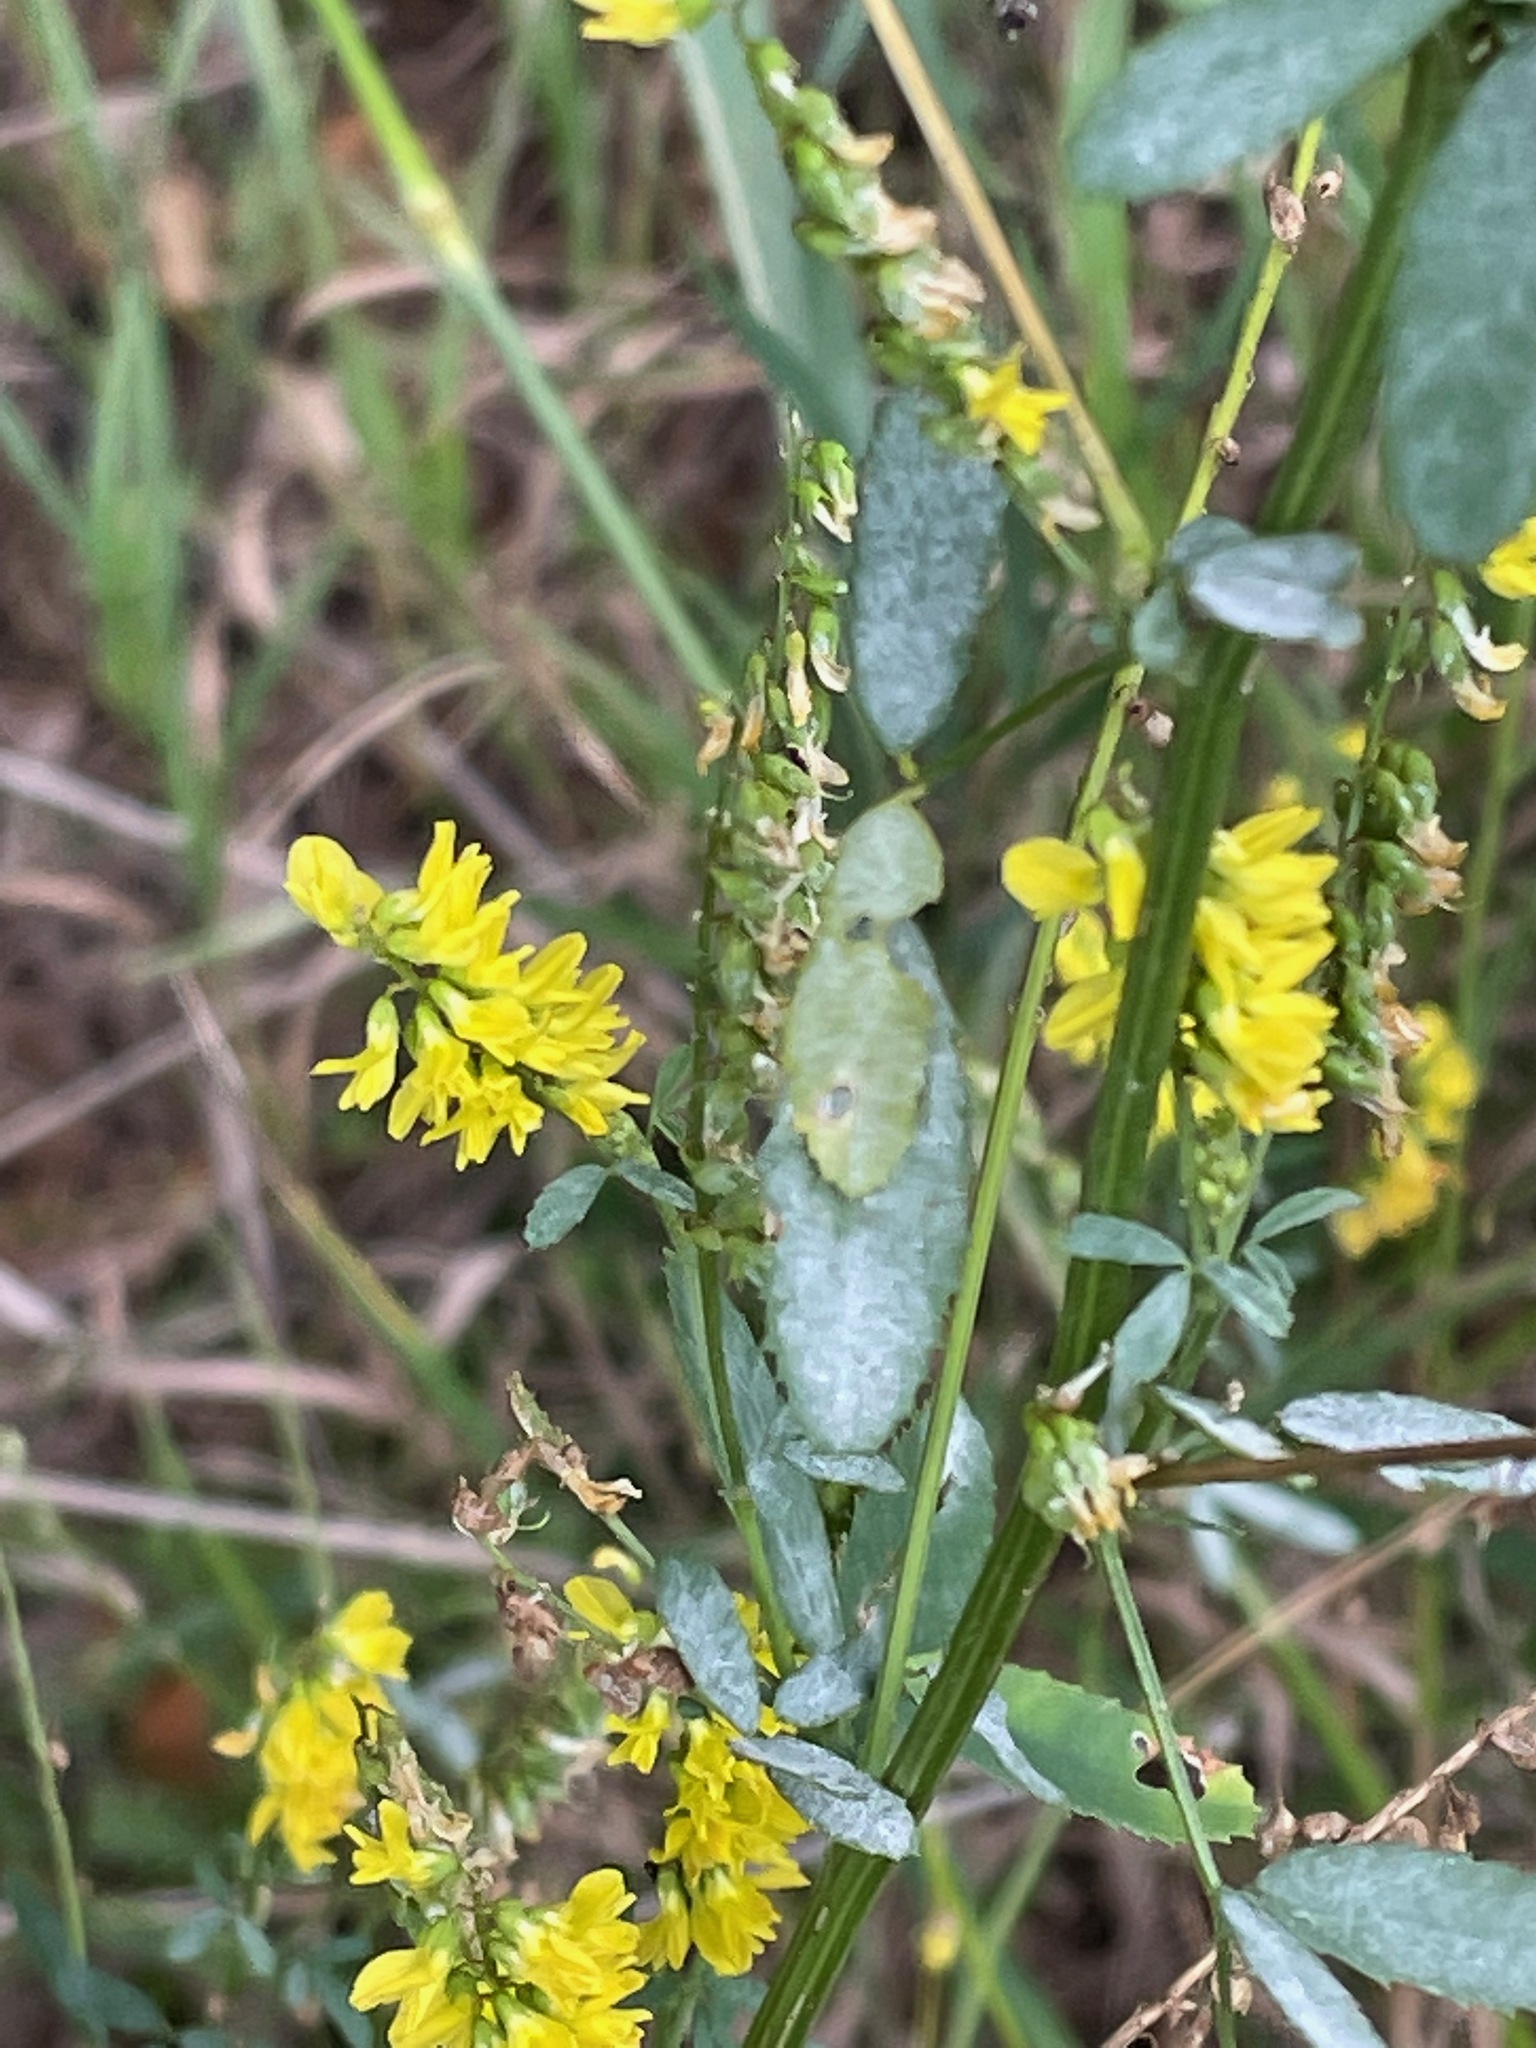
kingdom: Plantae
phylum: Tracheophyta
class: Magnoliopsida
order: Fabales
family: Fabaceae
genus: Melilotus
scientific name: Melilotus officinalis
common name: Sweetclover
